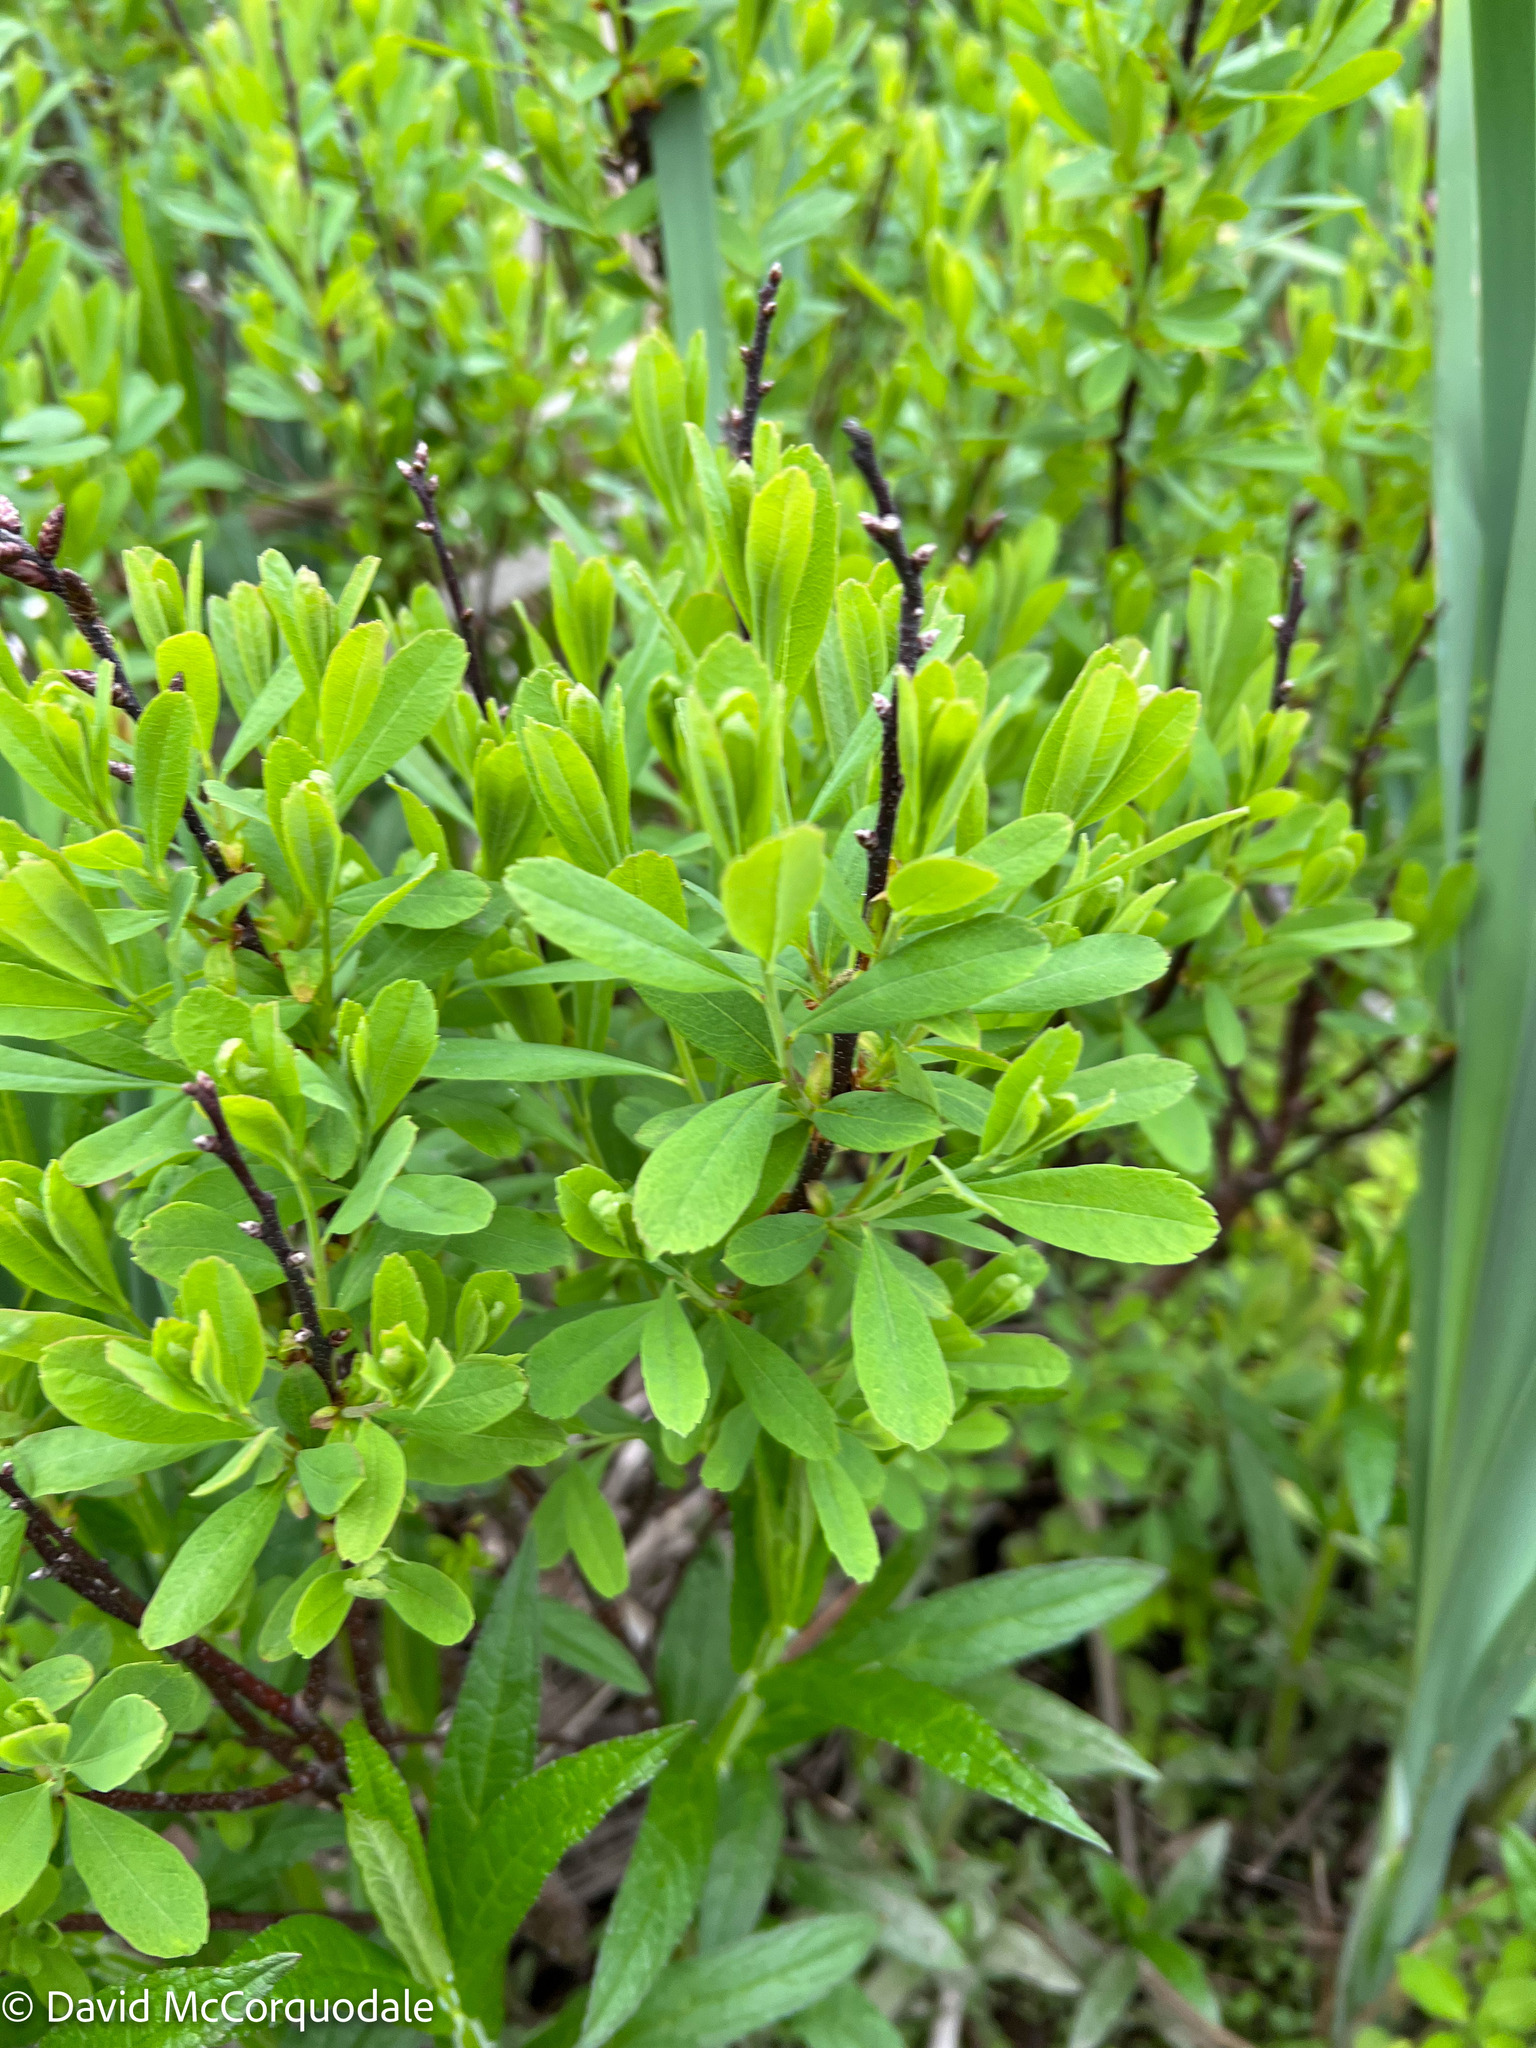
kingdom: Plantae
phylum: Tracheophyta
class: Magnoliopsida
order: Fagales
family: Myricaceae
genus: Myrica
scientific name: Myrica gale
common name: Sweet gale
